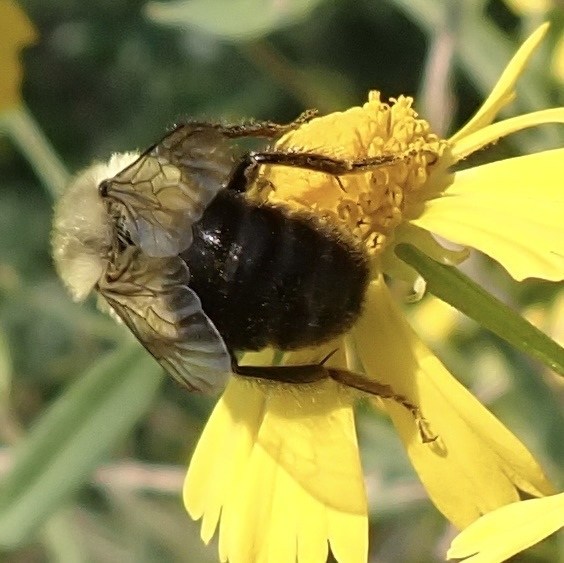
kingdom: Animalia
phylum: Arthropoda
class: Insecta
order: Hymenoptera
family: Apidae
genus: Bombus
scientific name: Bombus impatiens
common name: Common eastern bumble bee
